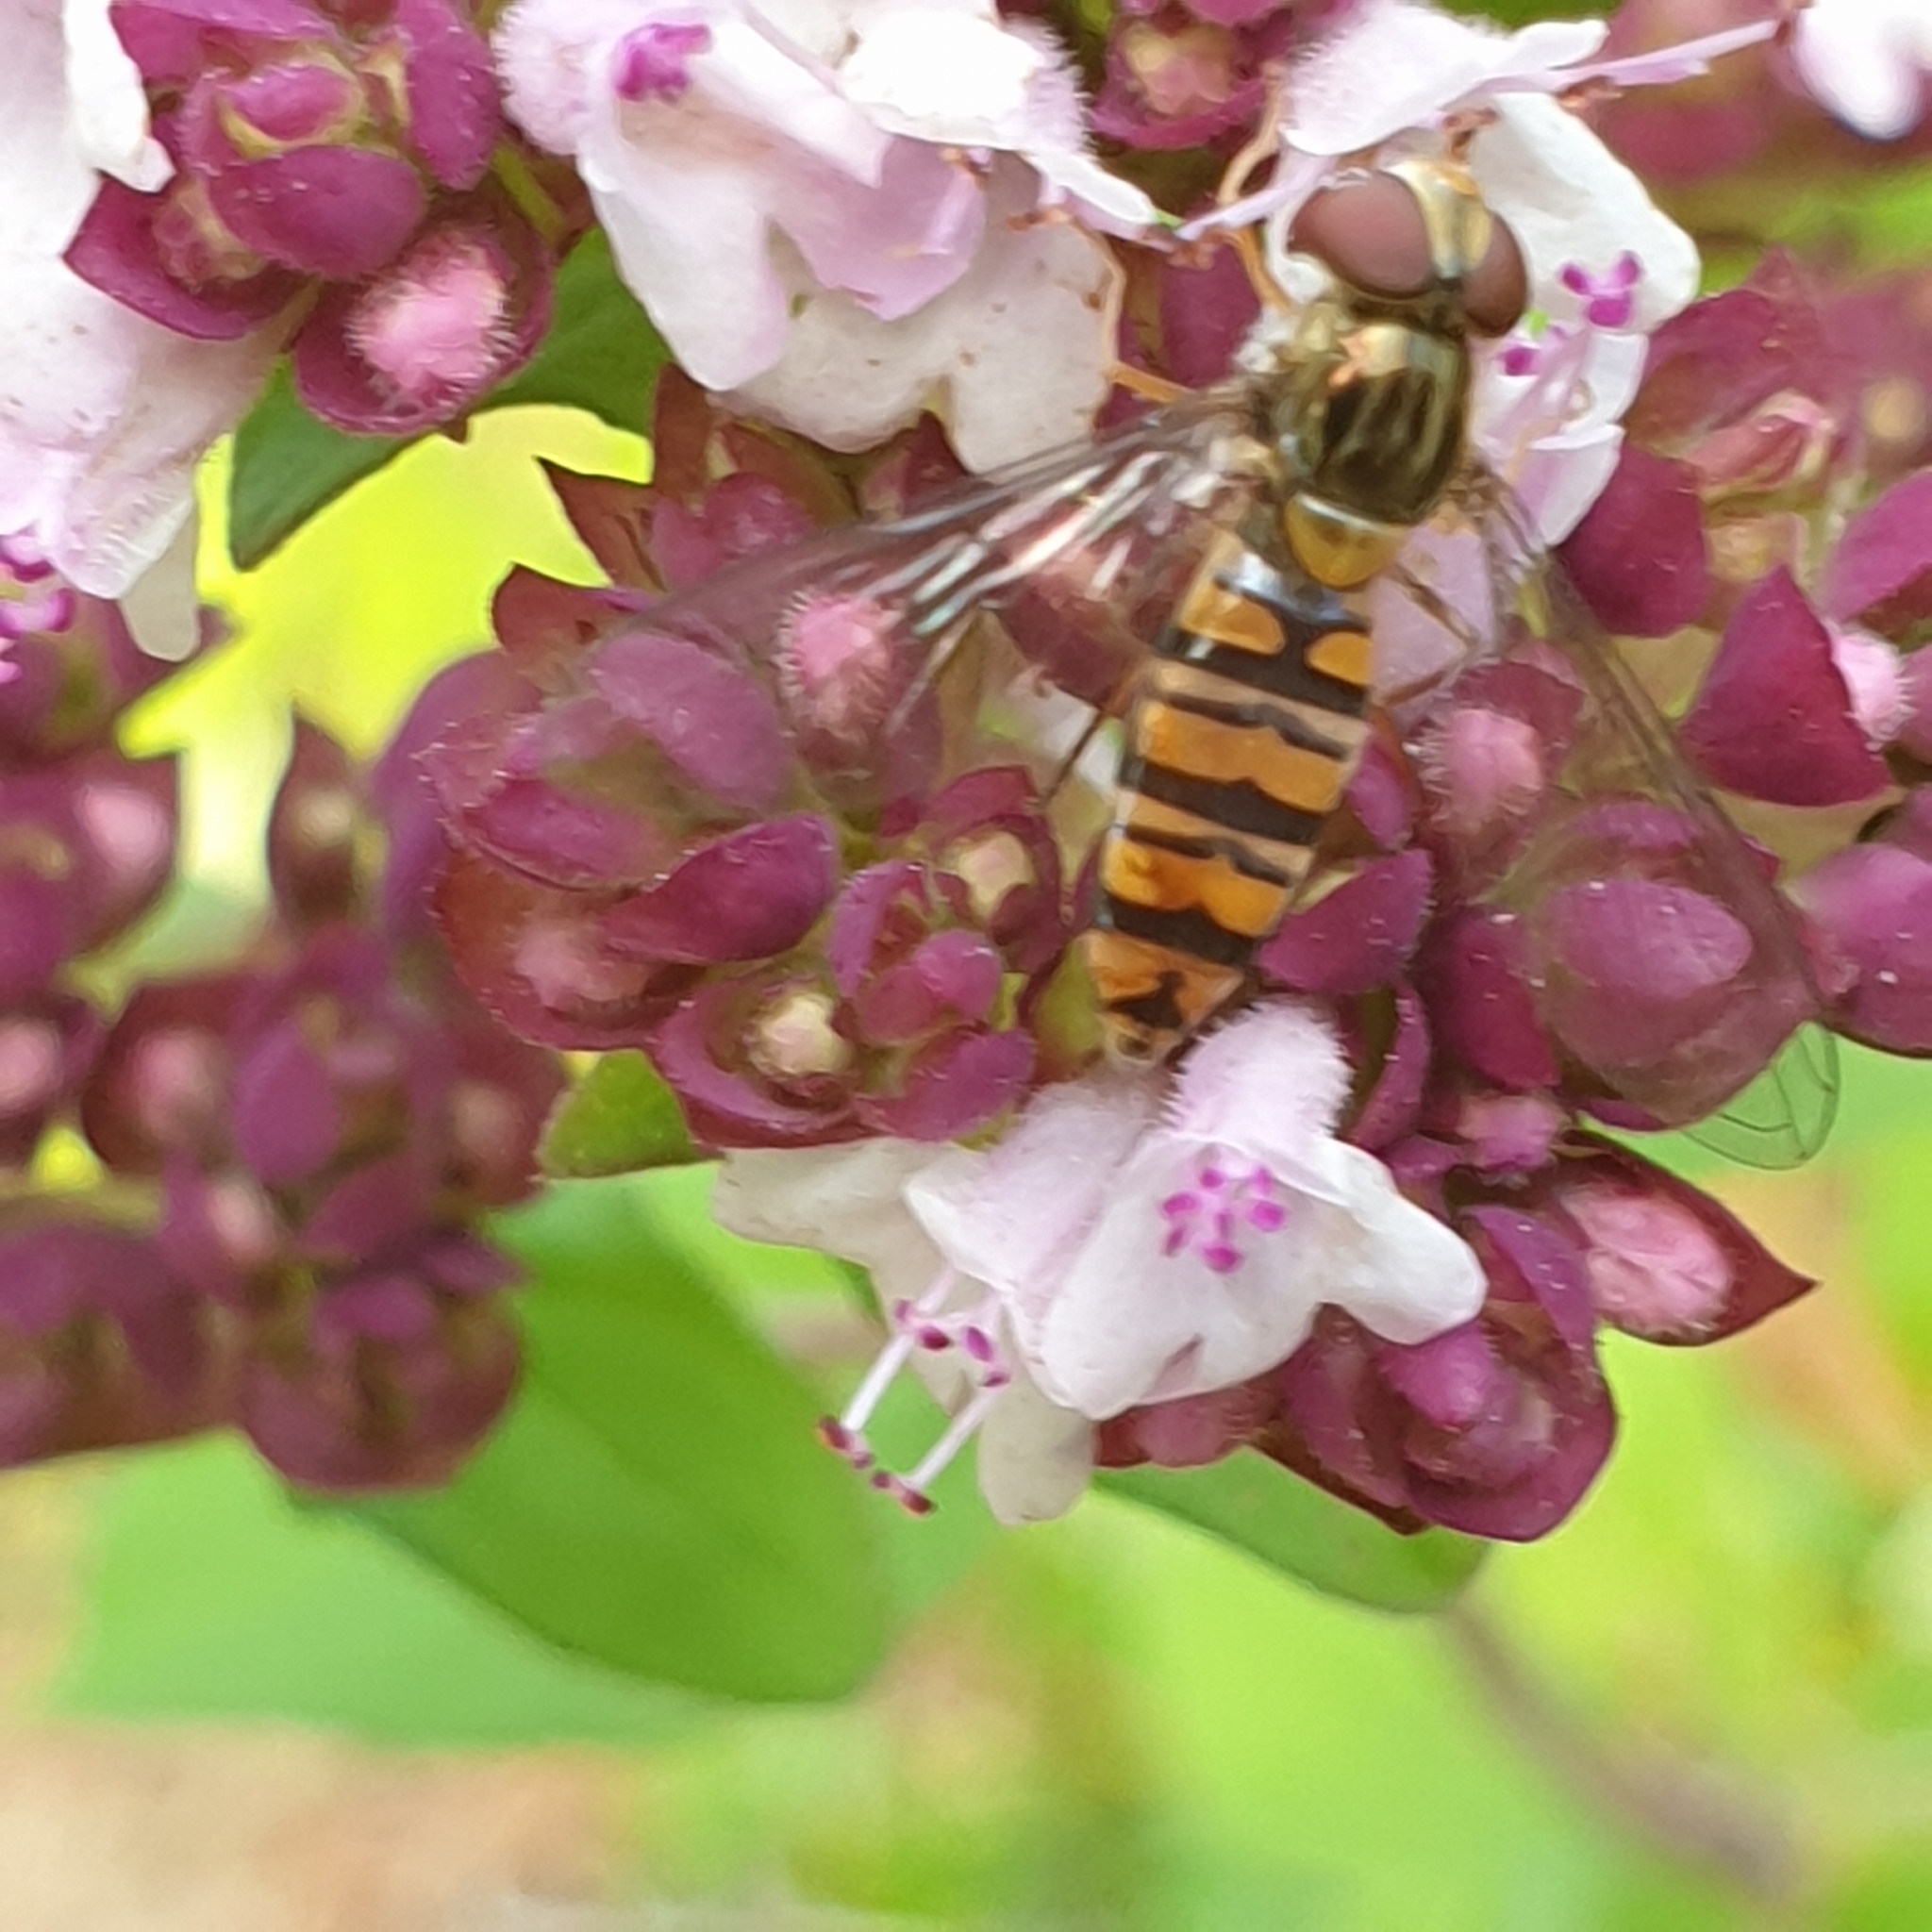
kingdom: Animalia
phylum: Arthropoda
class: Insecta
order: Diptera
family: Syrphidae
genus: Episyrphus
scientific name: Episyrphus balteatus
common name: Marmalade hoverfly
